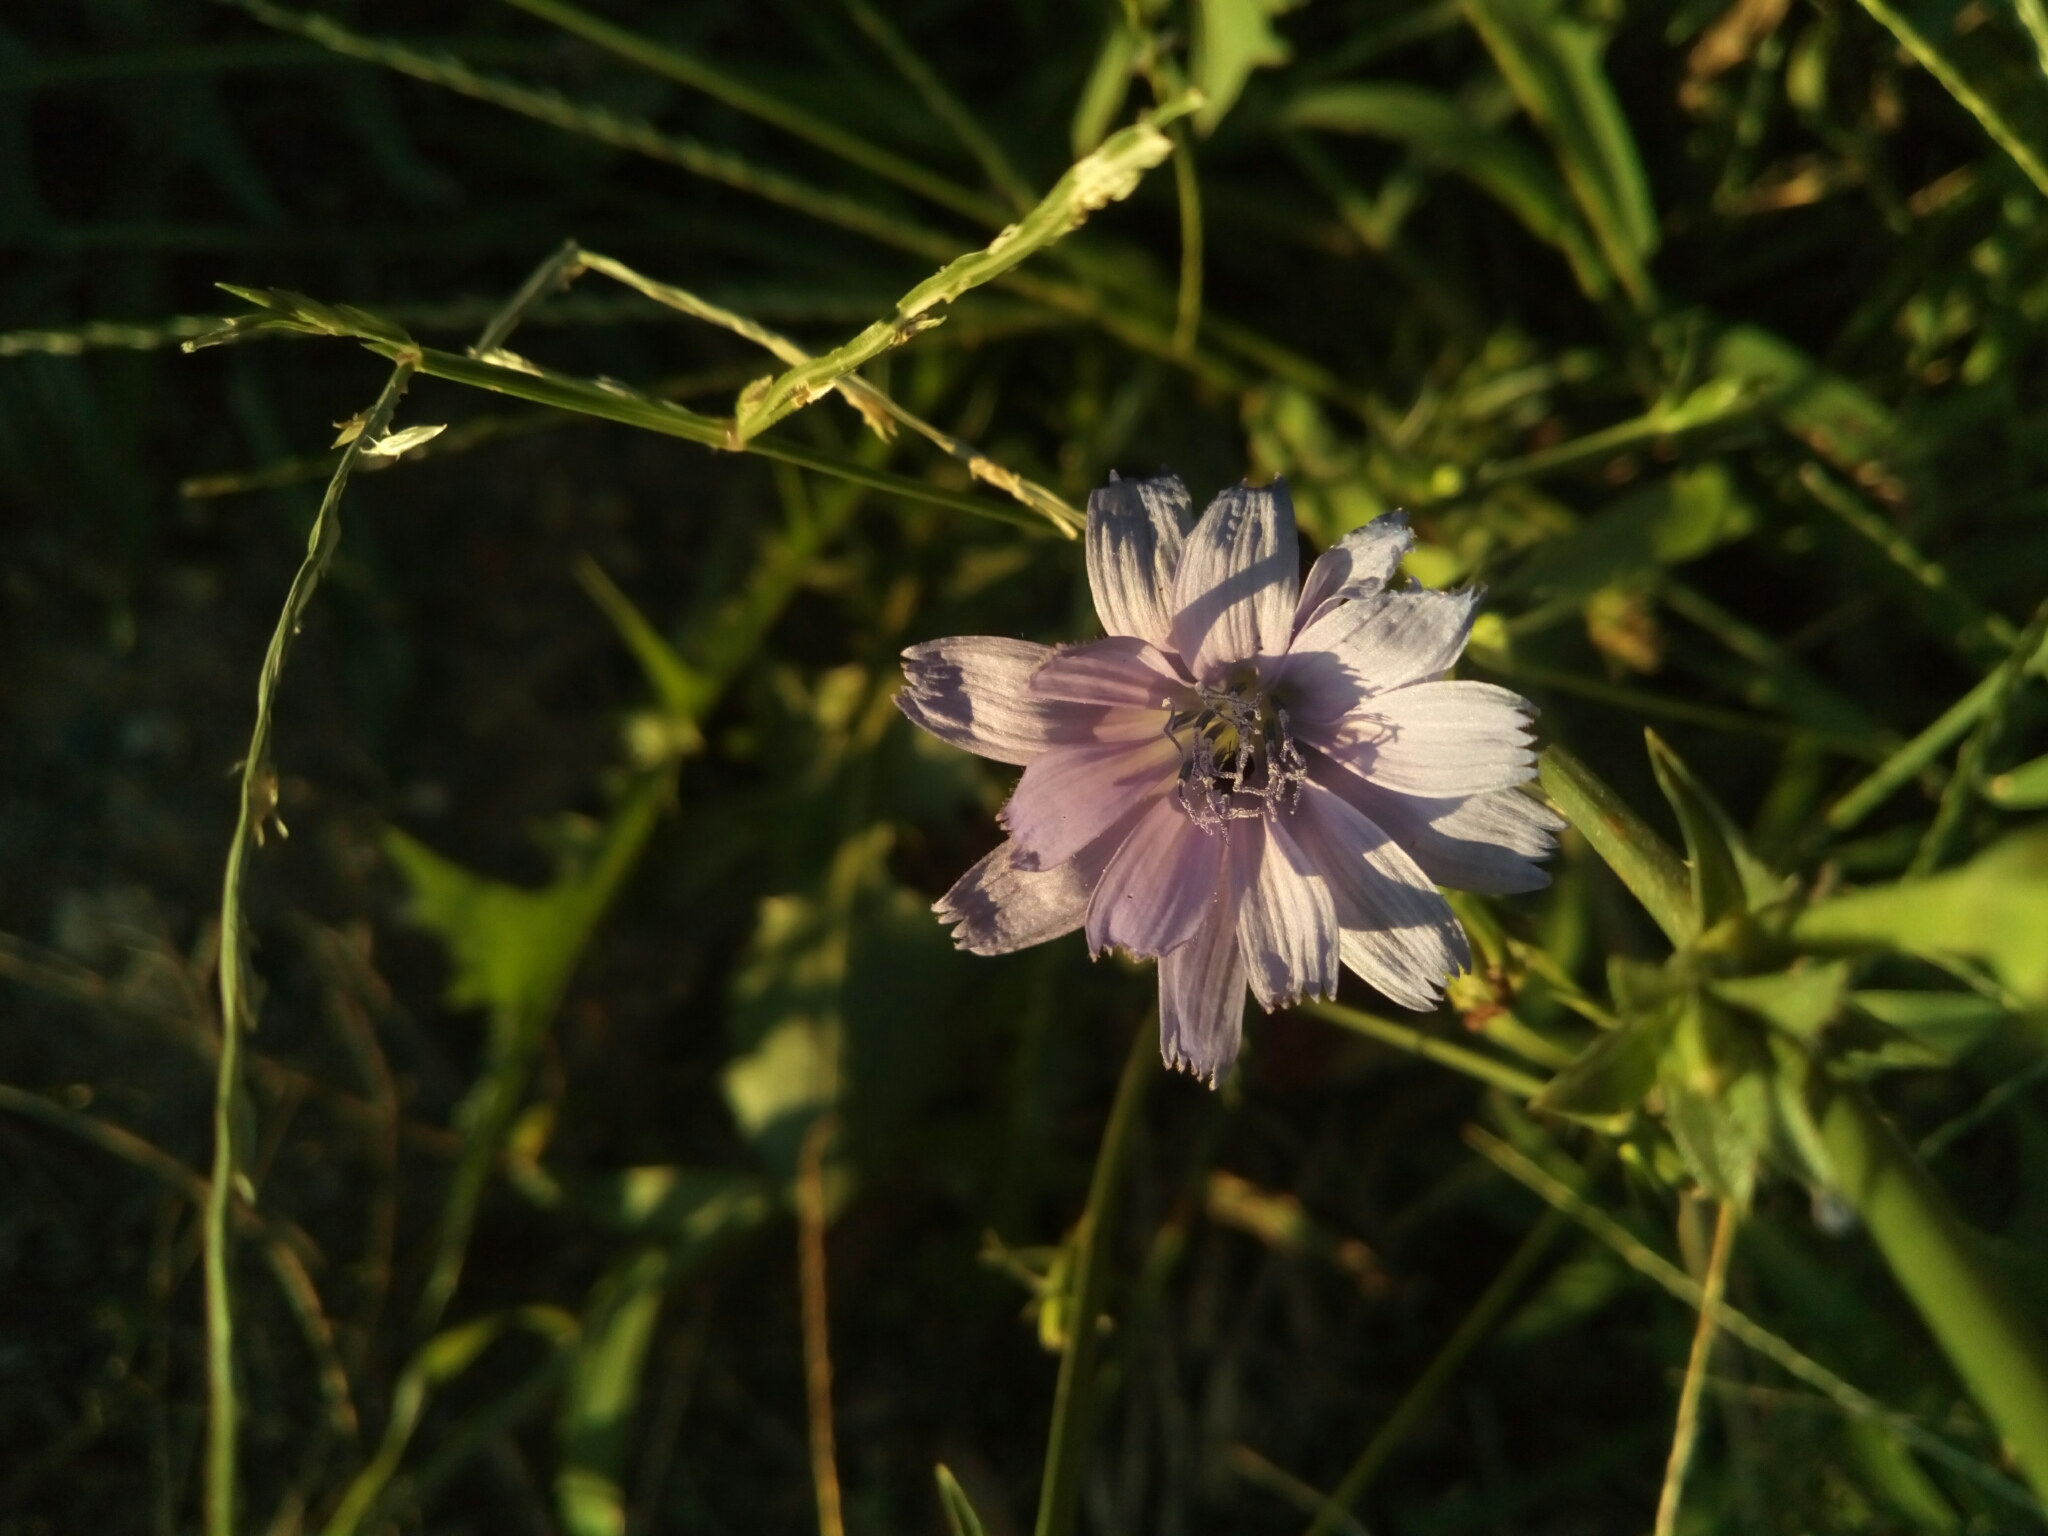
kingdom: Plantae
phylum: Tracheophyta
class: Magnoliopsida
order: Asterales
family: Asteraceae
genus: Cichorium
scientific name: Cichorium intybus
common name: Chicory
